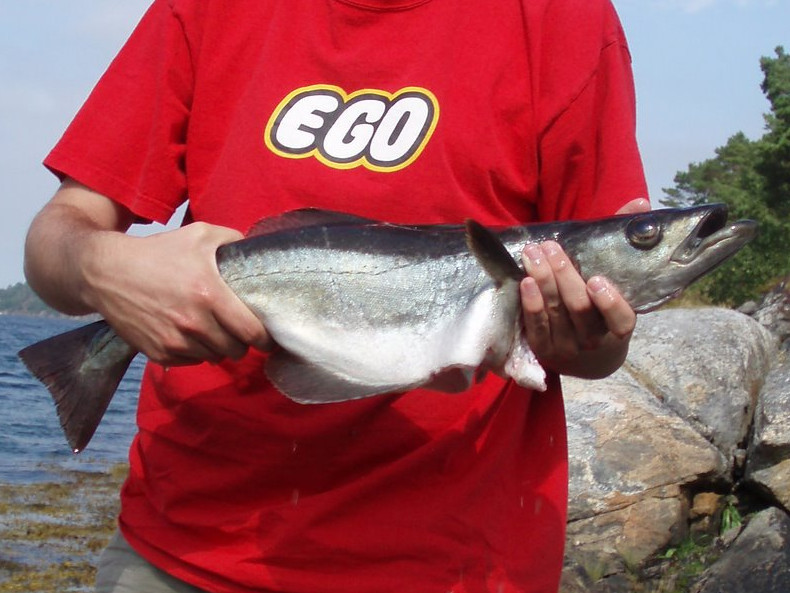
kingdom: Animalia
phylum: Chordata
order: Gadiformes
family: Gadidae
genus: Pollachius
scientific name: Pollachius pollachius
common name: Pollack
